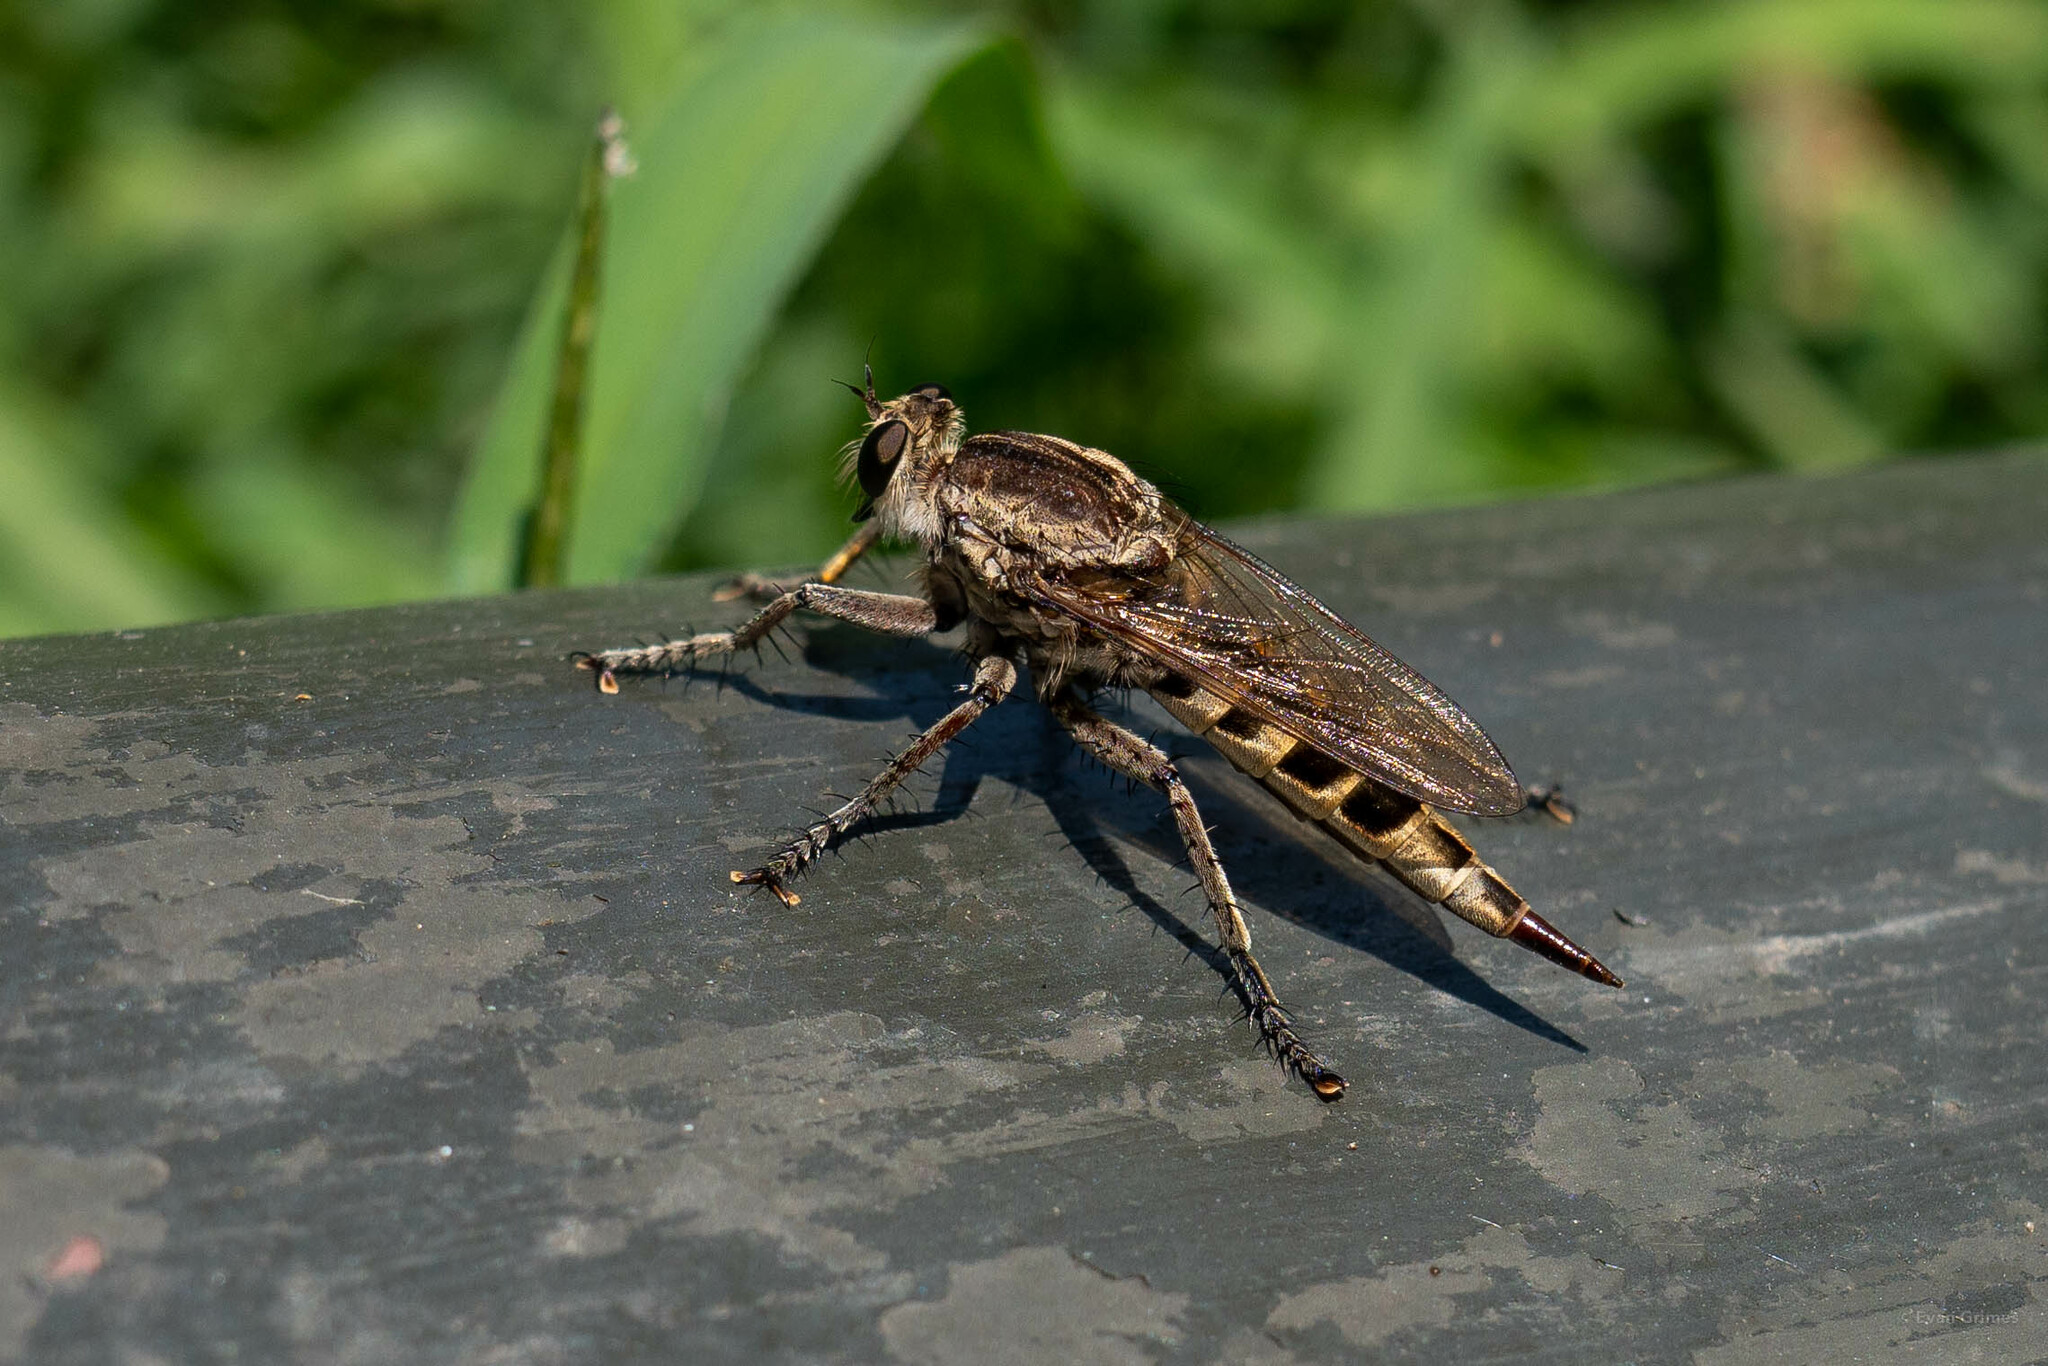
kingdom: Animalia
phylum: Arthropoda
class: Insecta
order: Diptera
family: Asilidae
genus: Triorla
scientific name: Triorla interrupta
